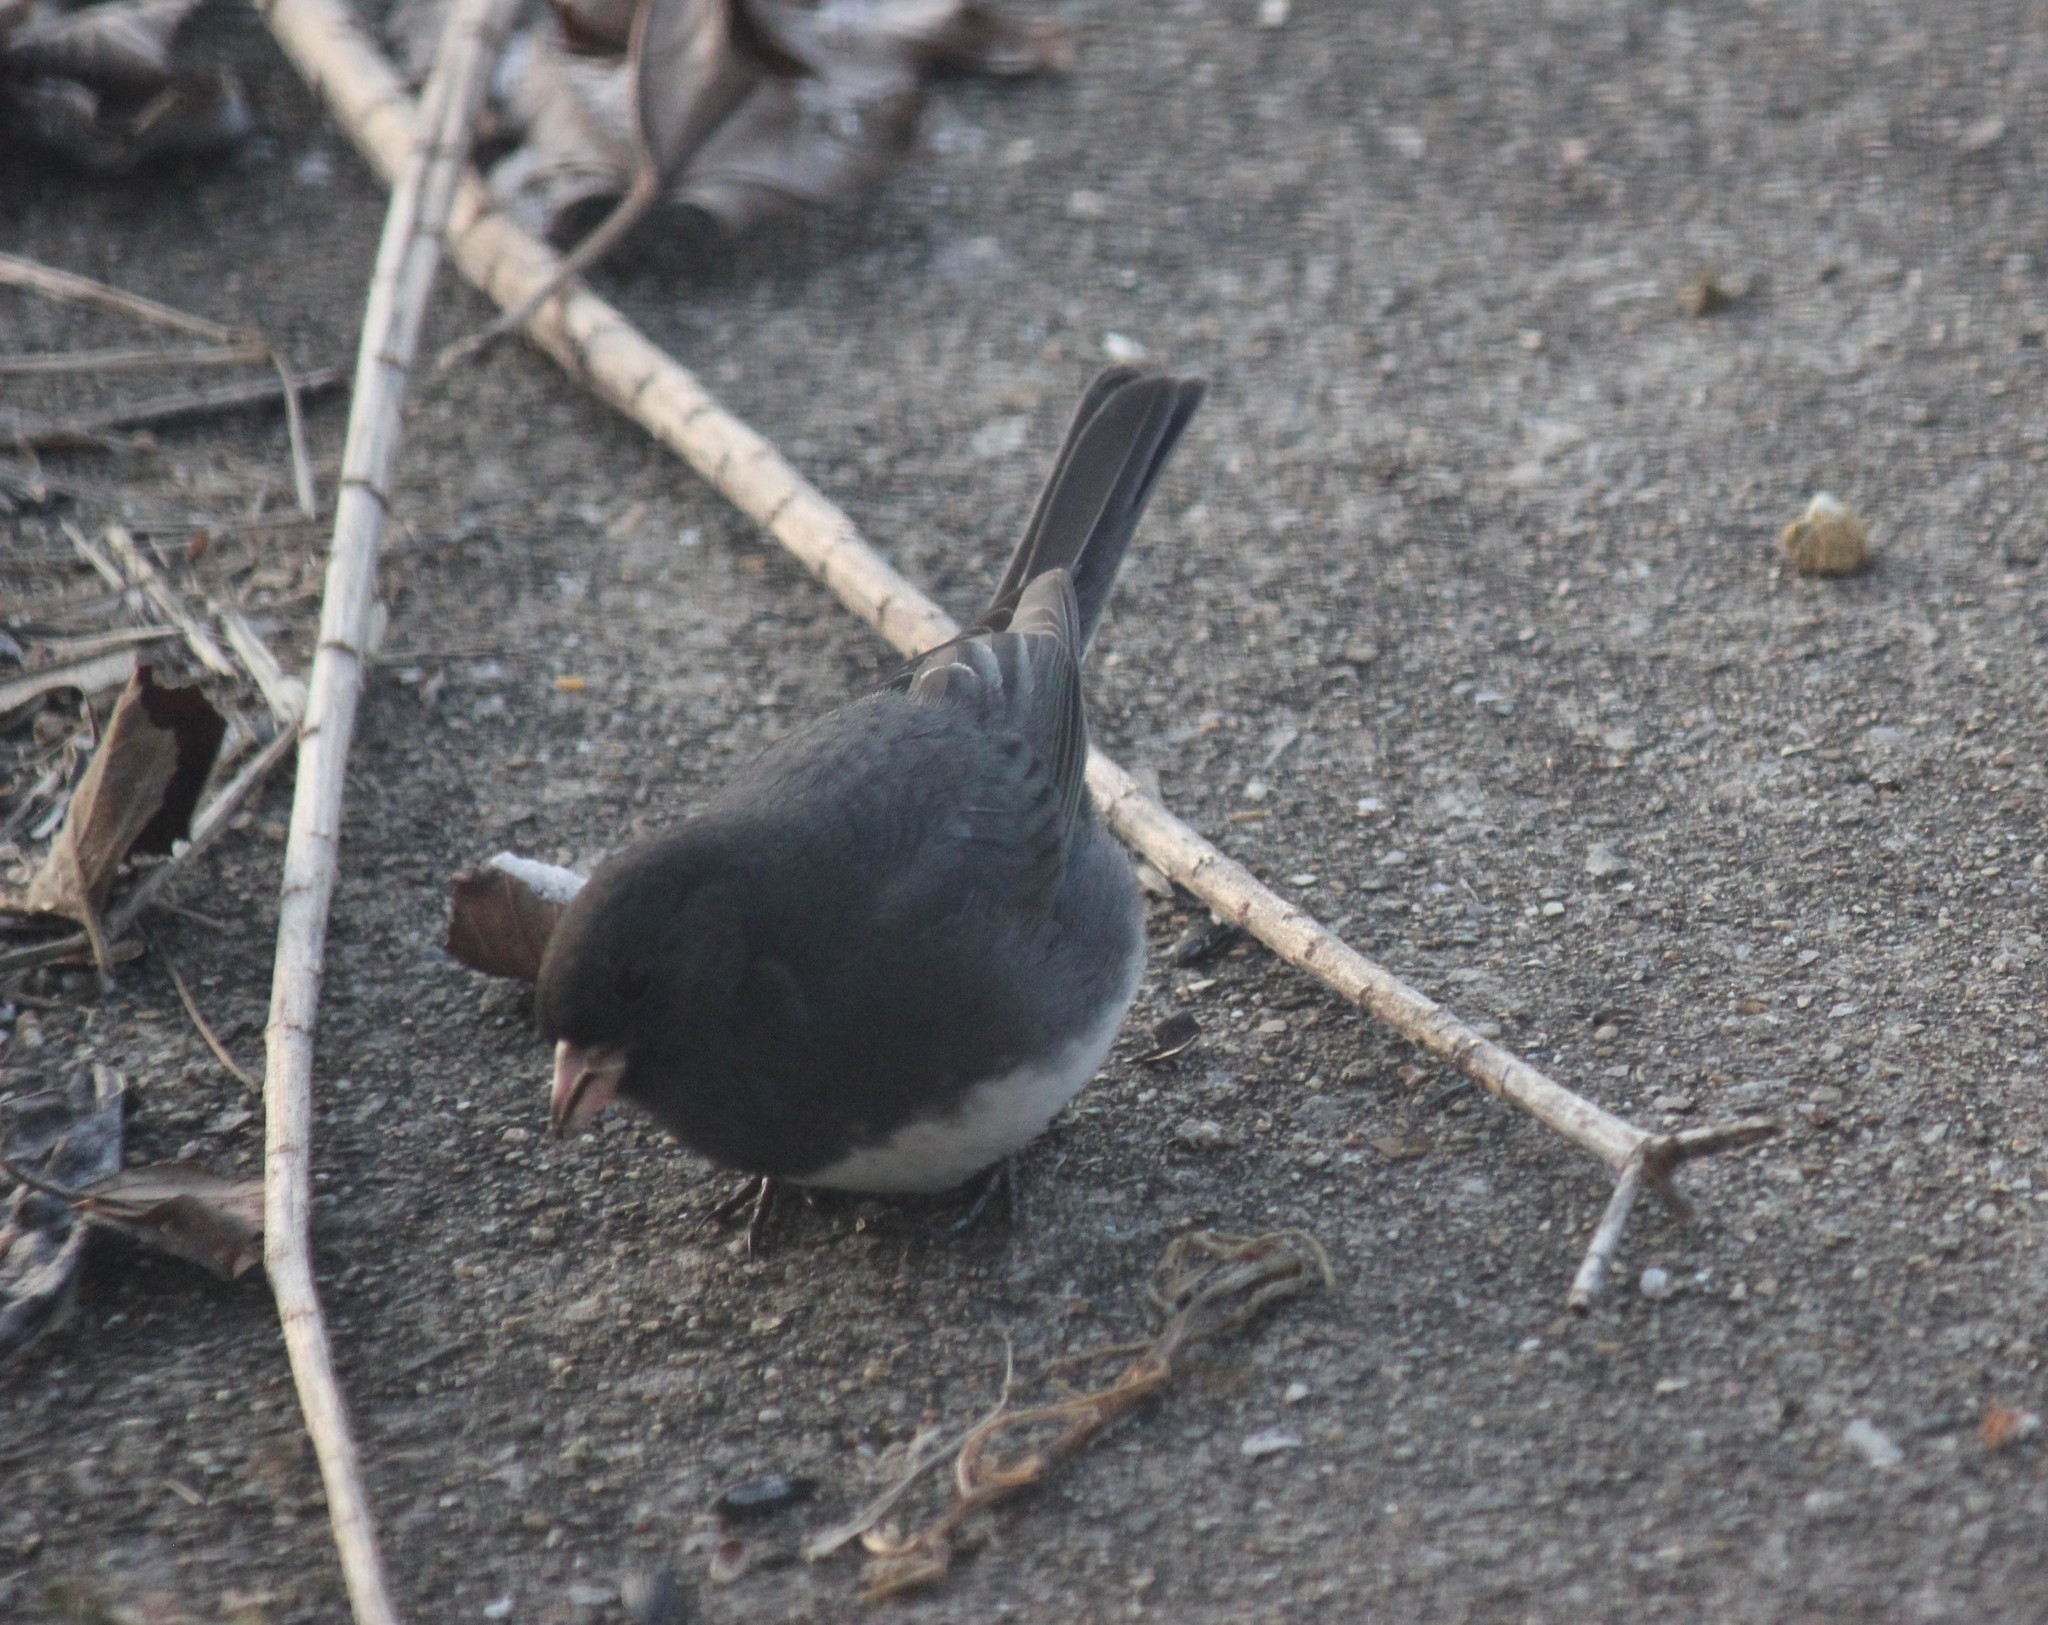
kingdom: Animalia
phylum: Chordata
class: Aves
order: Passeriformes
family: Passerellidae
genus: Junco
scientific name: Junco hyemalis
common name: Dark-eyed junco
